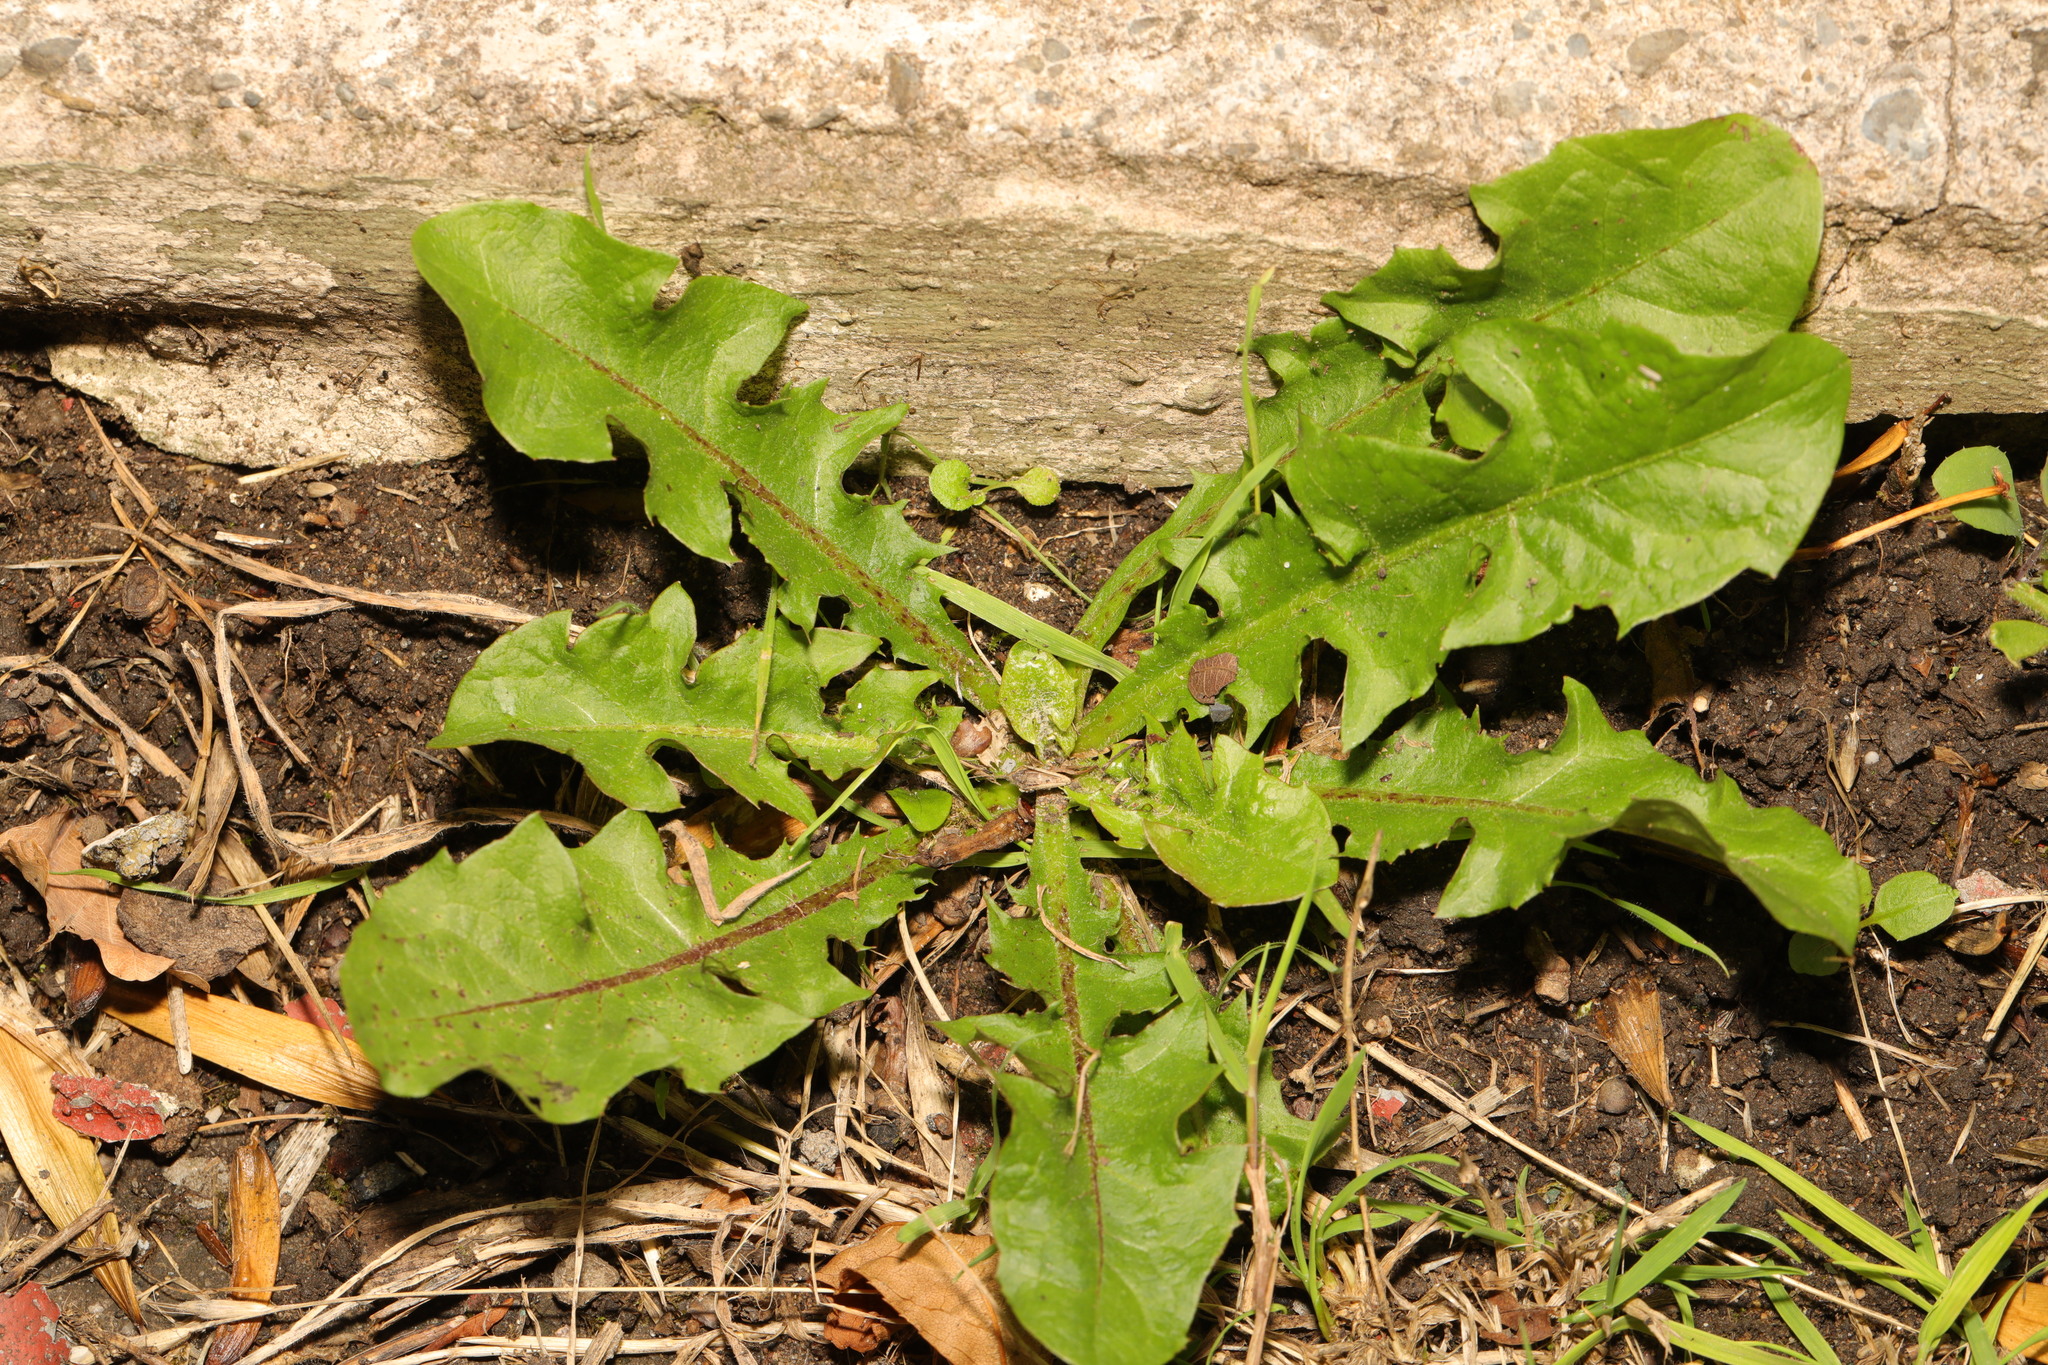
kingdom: Plantae
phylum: Tracheophyta
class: Magnoliopsida
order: Asterales
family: Asteraceae
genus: Taraxacum
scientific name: Taraxacum officinale
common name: Common dandelion
